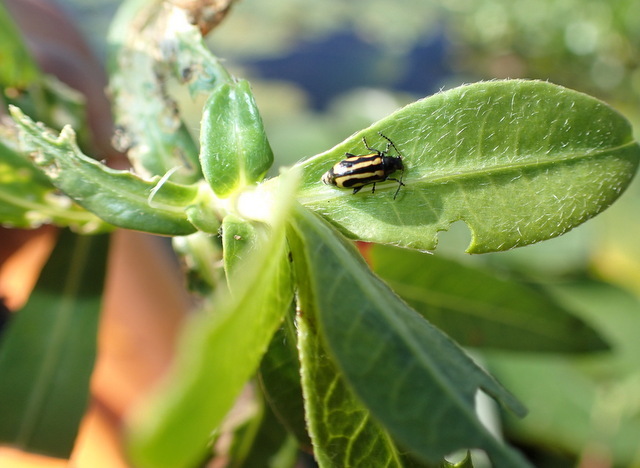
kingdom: Animalia
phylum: Arthropoda
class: Insecta
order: Coleoptera
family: Chrysomelidae
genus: Agasicles
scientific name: Agasicles hygrophila
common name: Alligatorweed flea beetle
